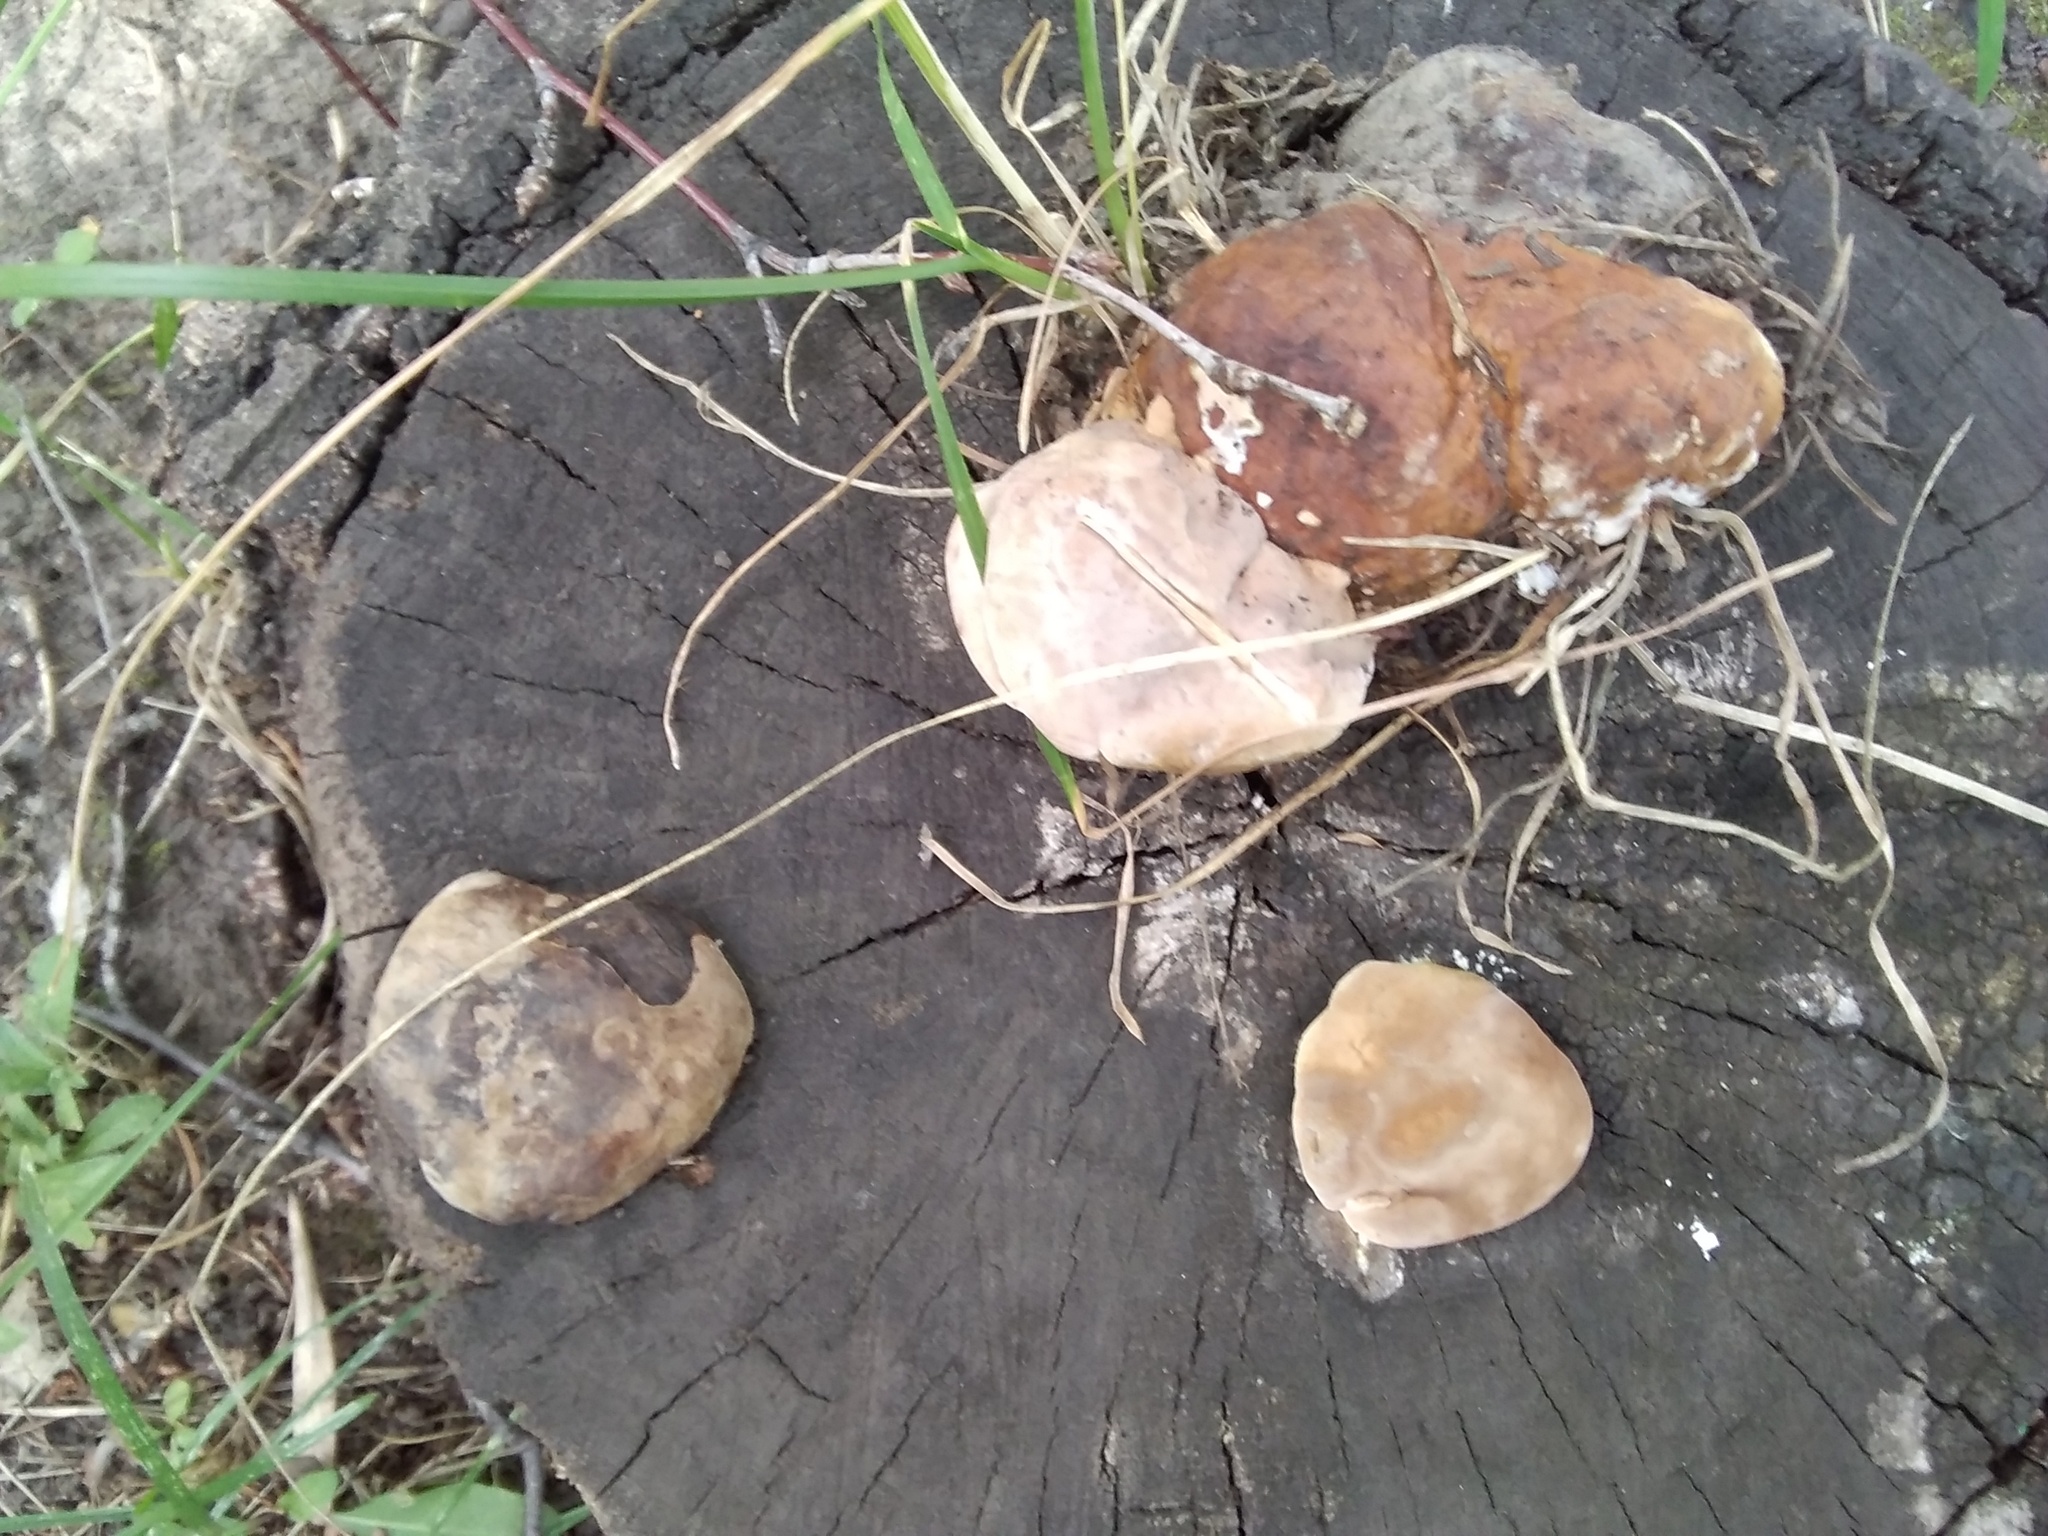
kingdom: Fungi
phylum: Basidiomycota
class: Agaricomycetes
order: Polyporales
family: Fomitopsidaceae
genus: Fomitopsis
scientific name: Fomitopsis pinicola
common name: Red-belted bracket
